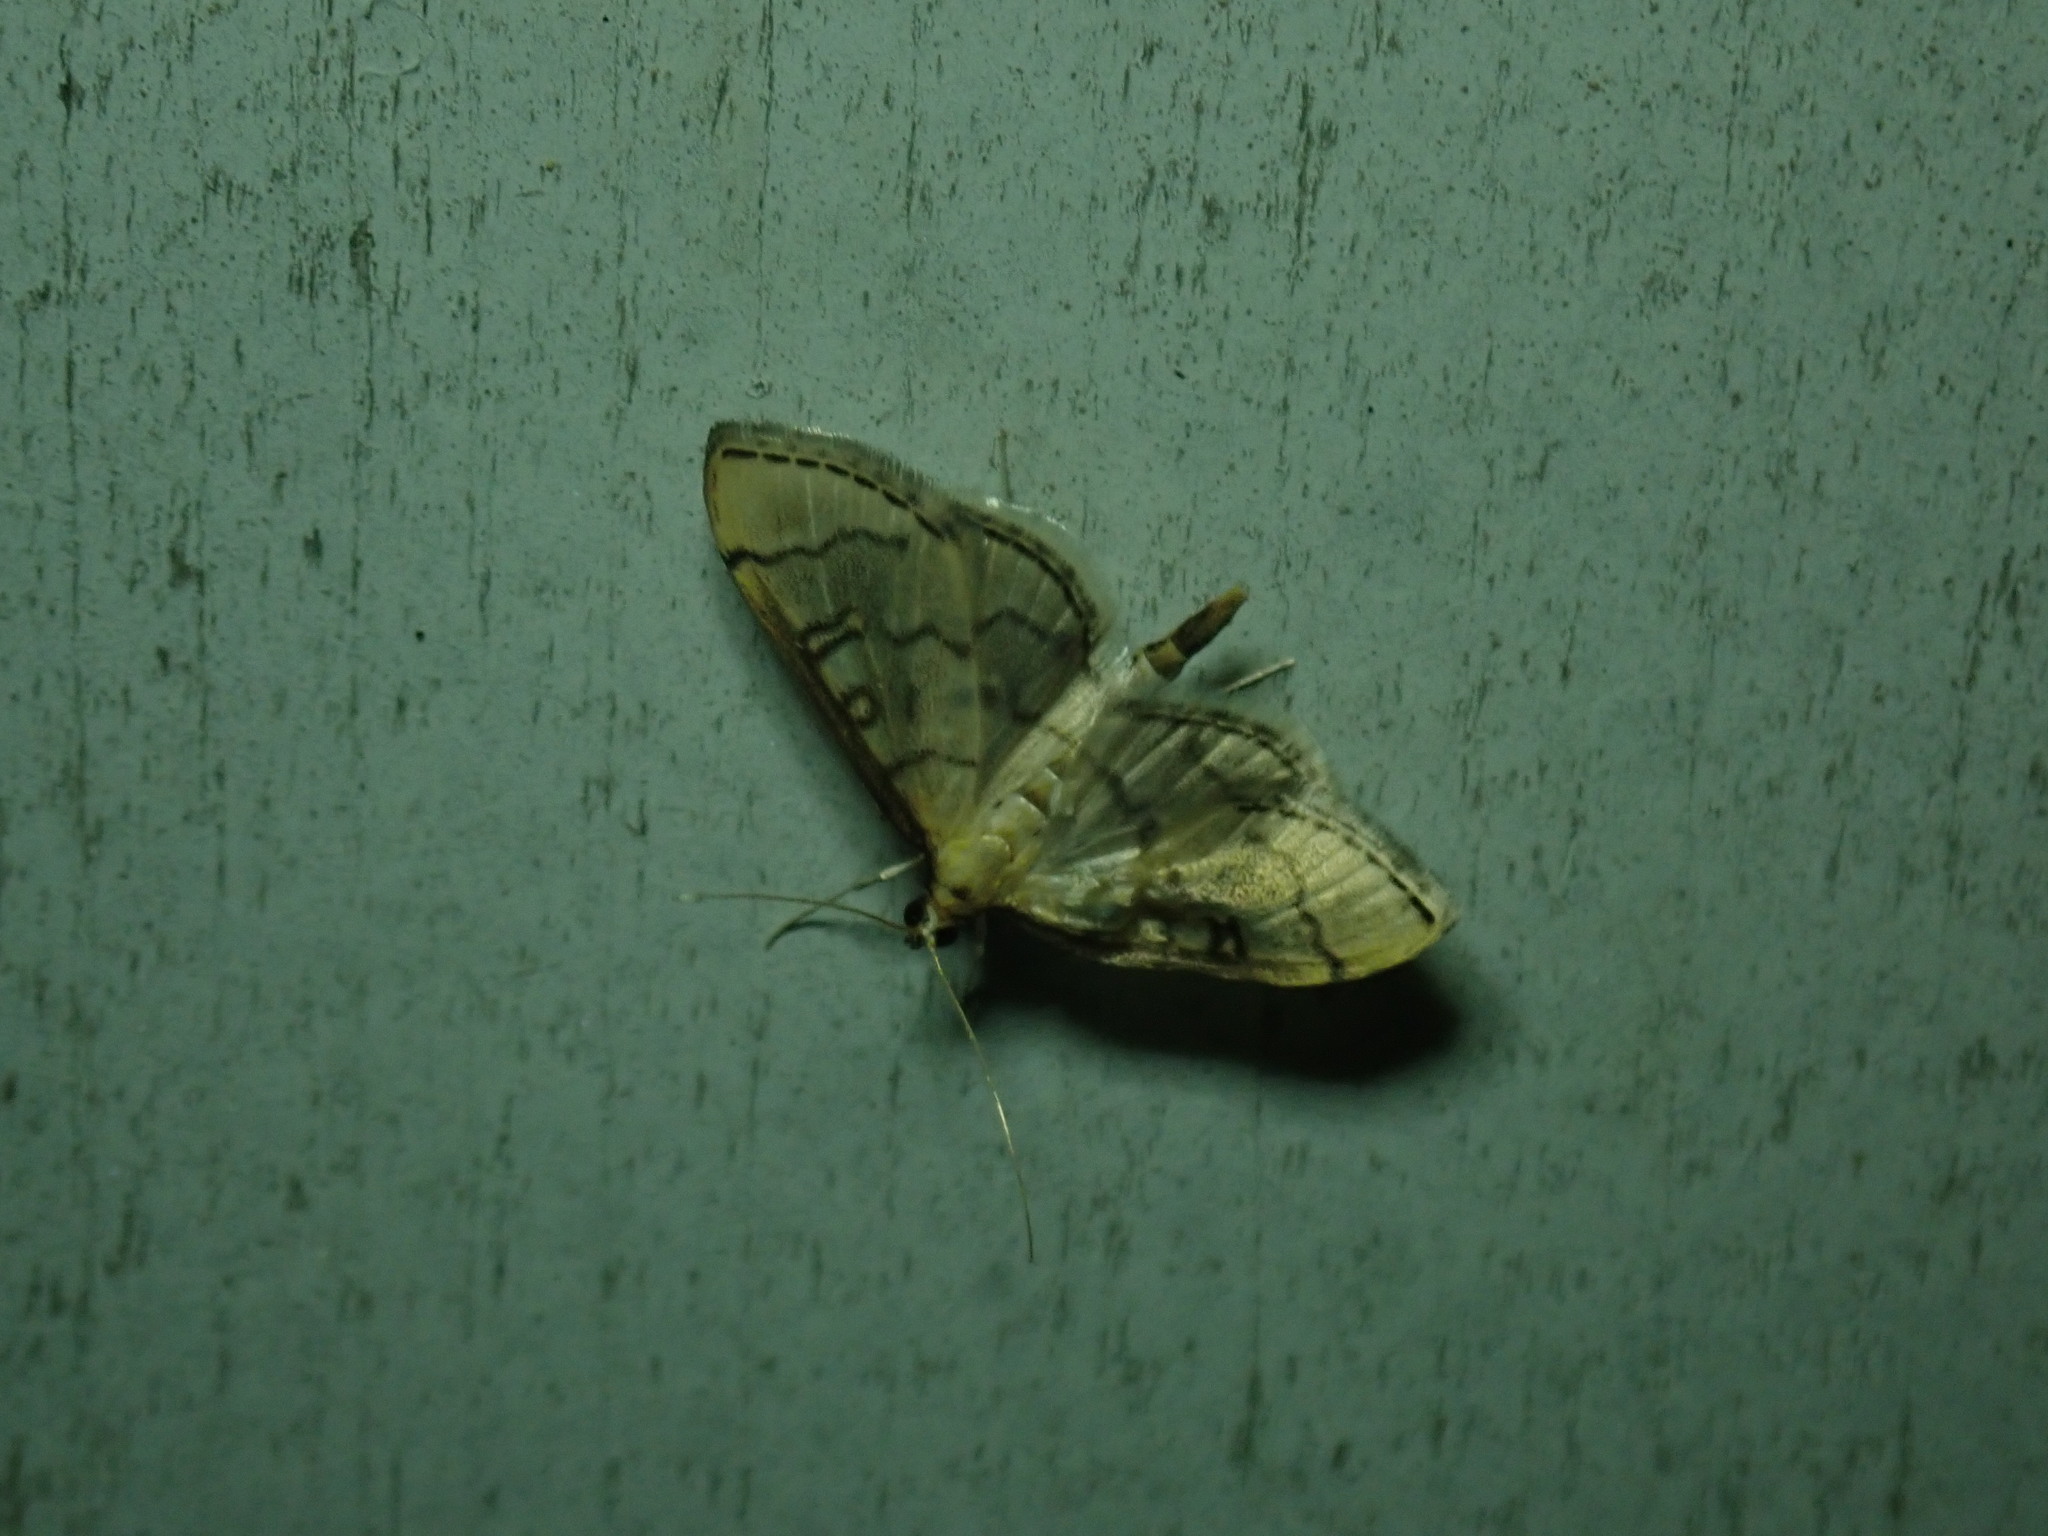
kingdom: Animalia
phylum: Arthropoda
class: Insecta
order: Lepidoptera
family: Crambidae
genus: Lamprosema
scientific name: Lamprosema Blepharomastix ranalis
